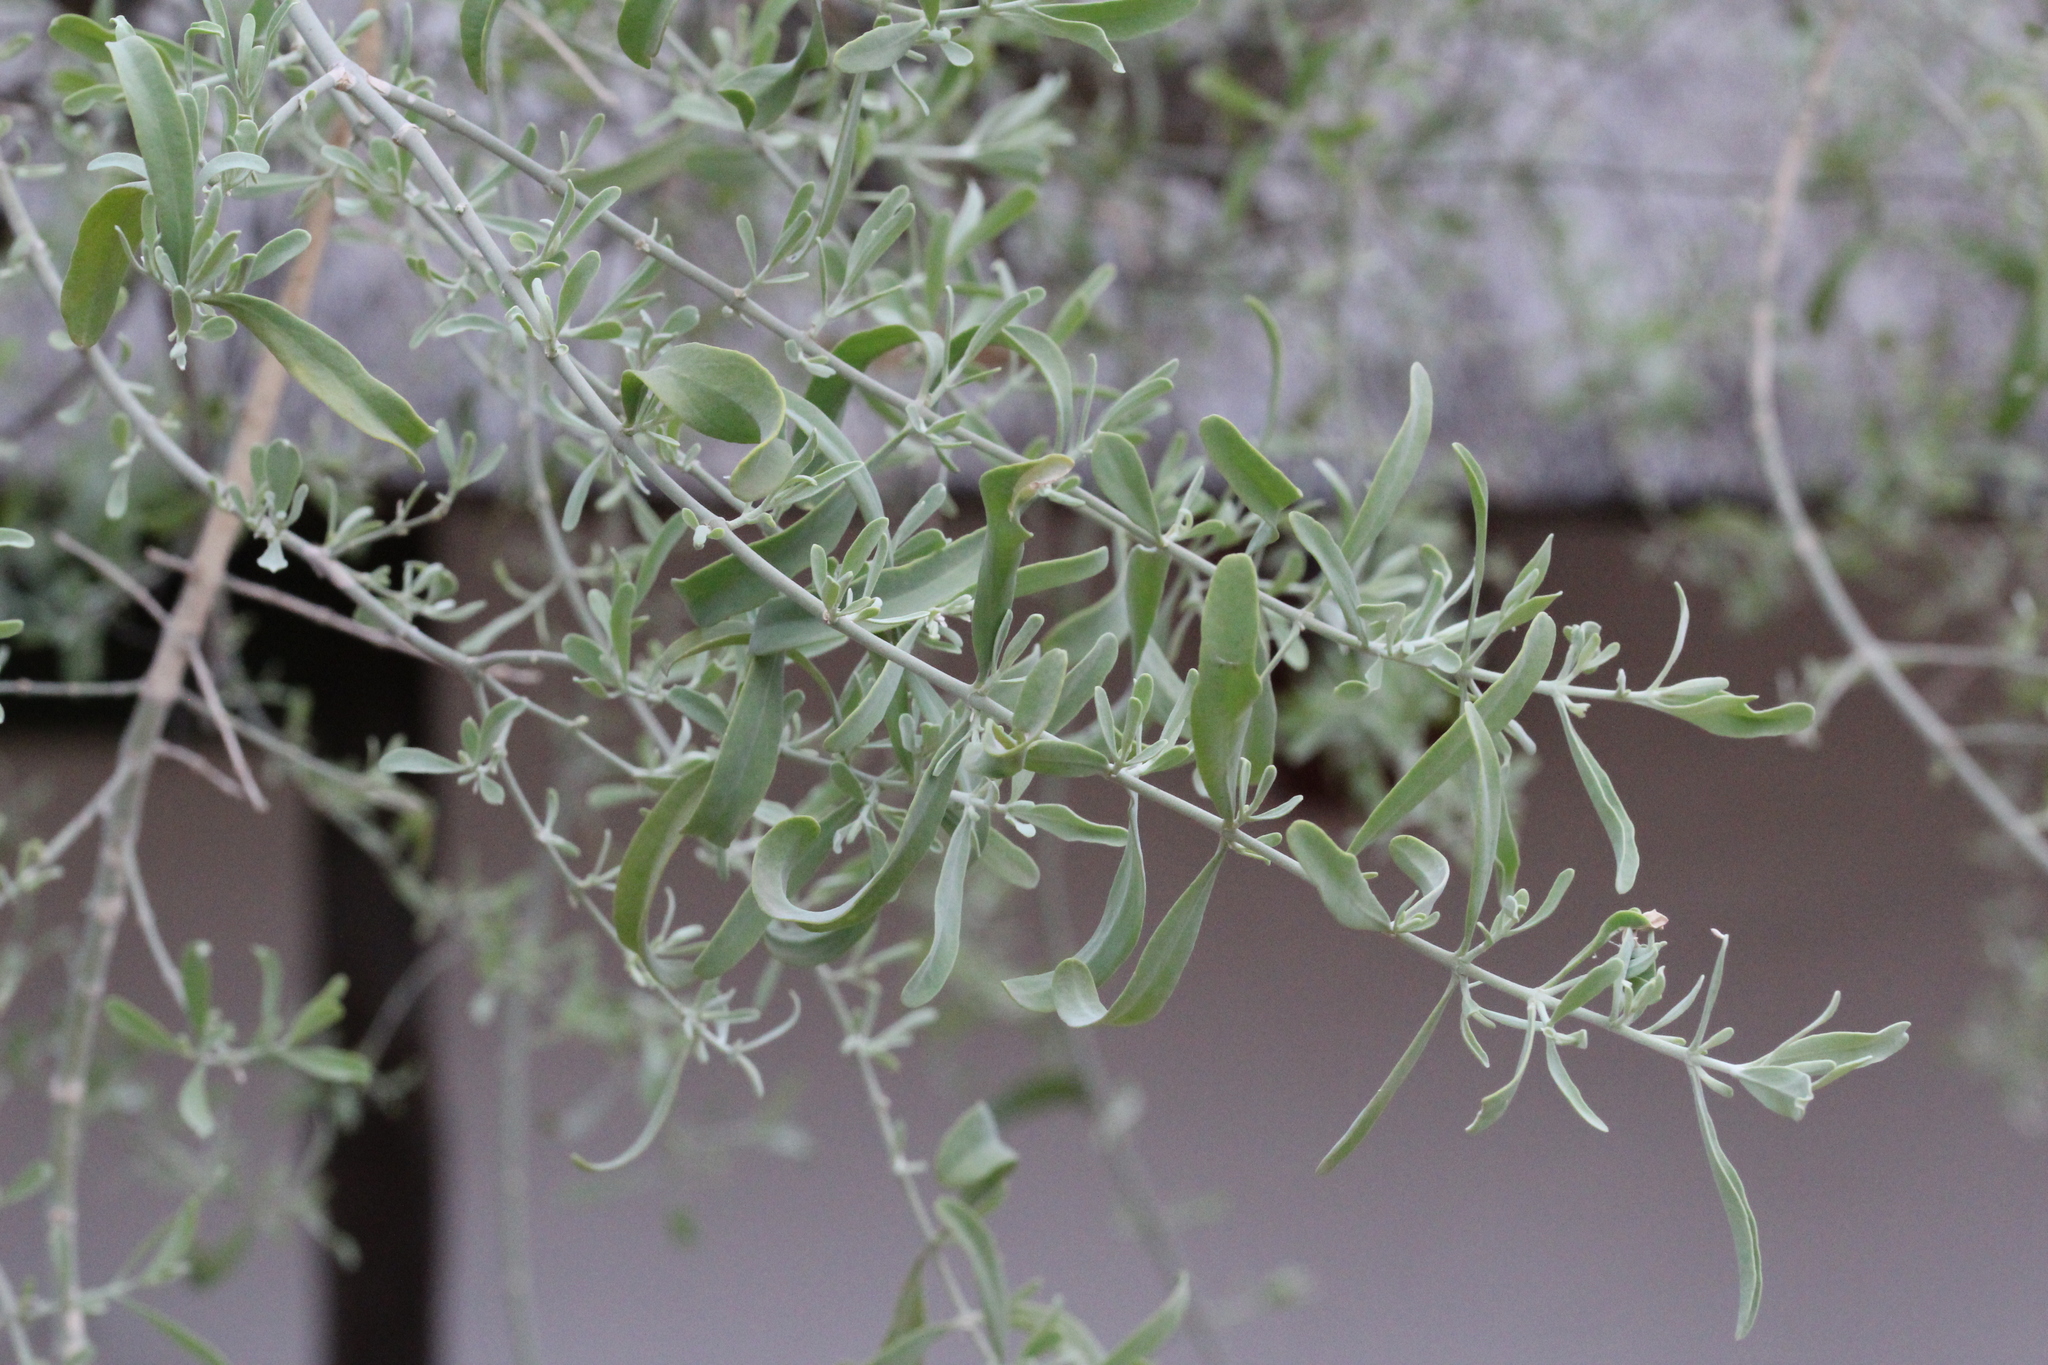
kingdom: Plantae
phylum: Tracheophyta
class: Magnoliopsida
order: Brassicales
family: Salvadoraceae
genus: Salvadora
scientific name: Salvadora australis
